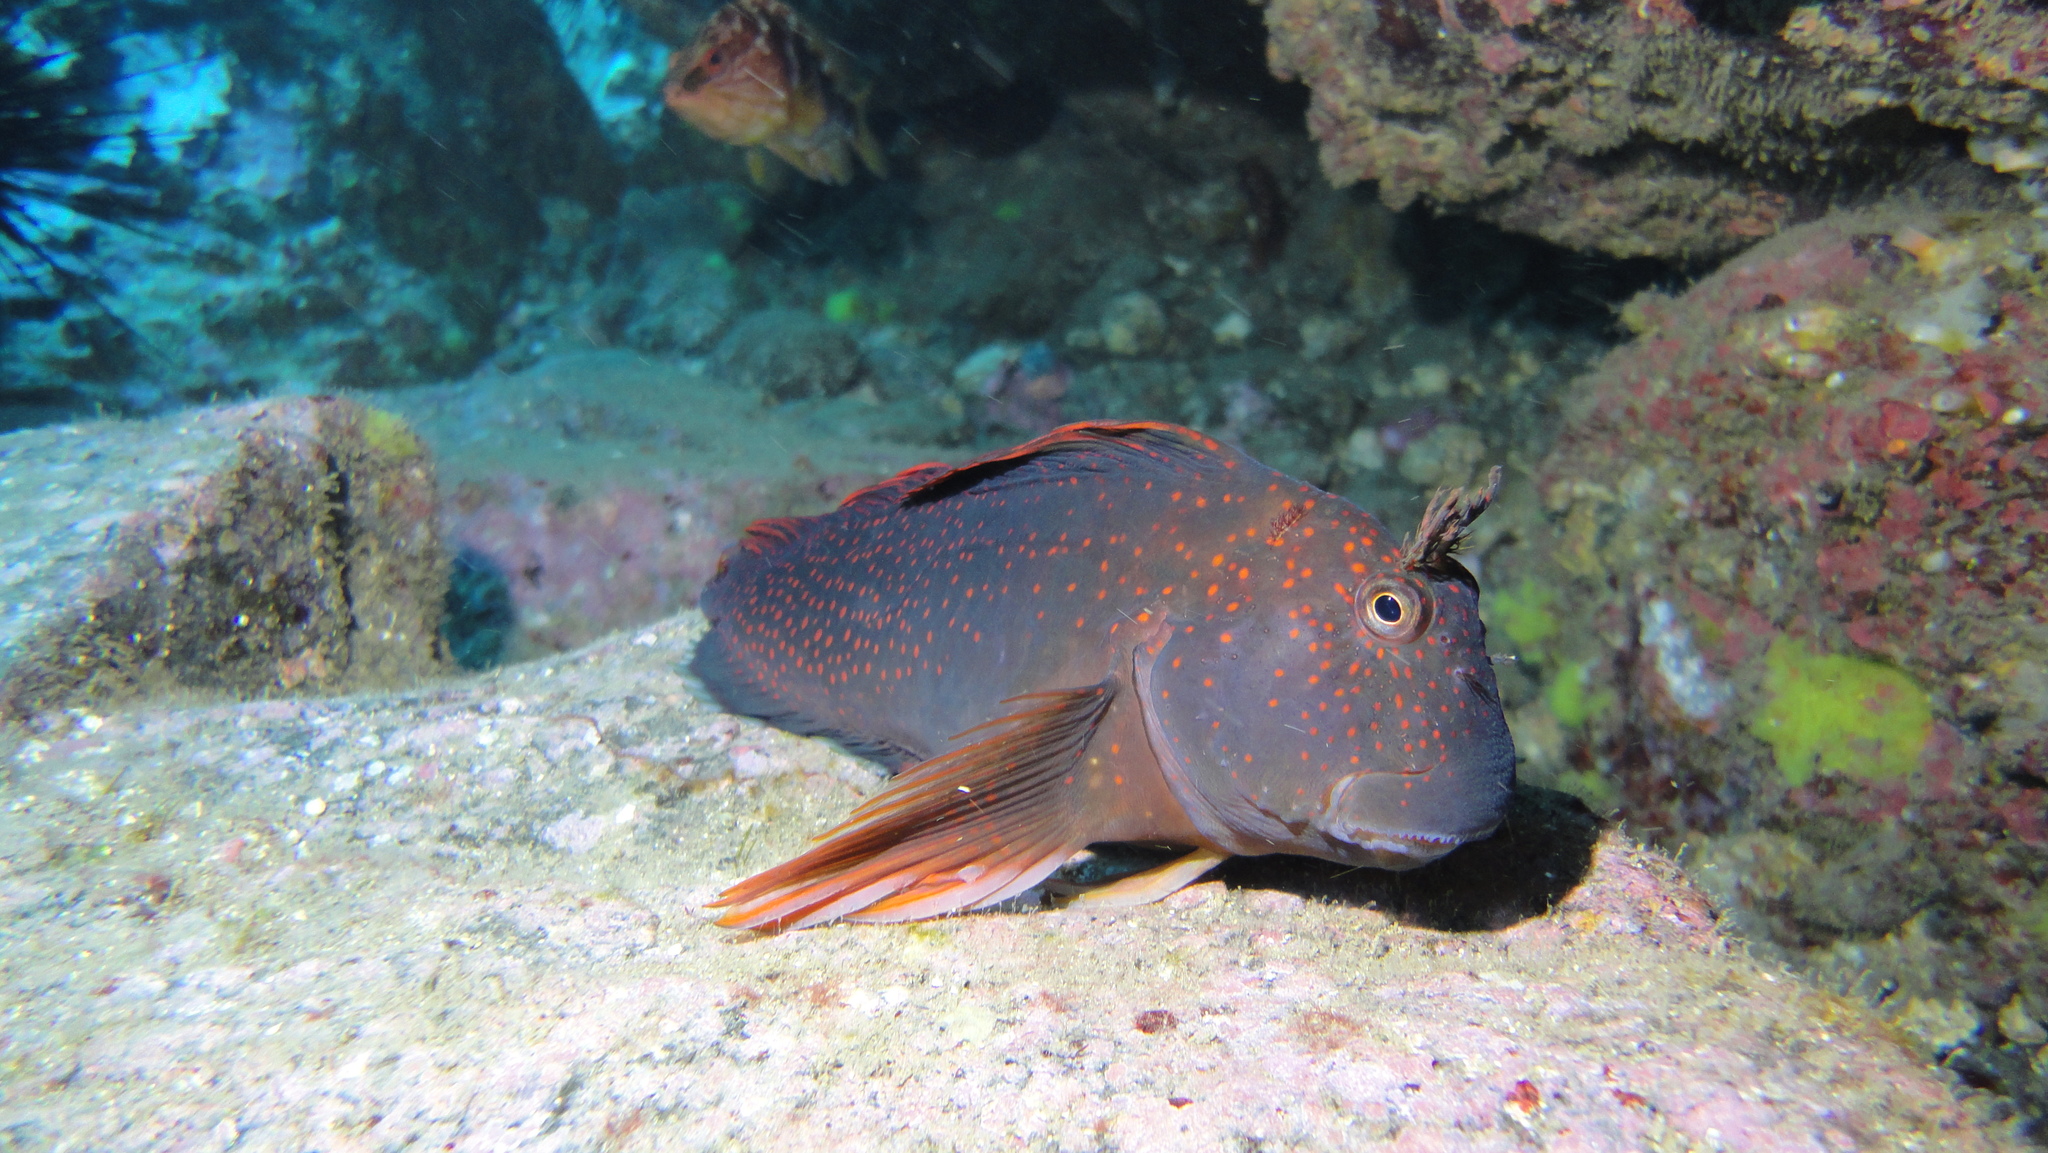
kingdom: Animalia
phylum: Chordata
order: Perciformes
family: Blenniidae
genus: Scartichthys
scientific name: Scartichthys variolatus
